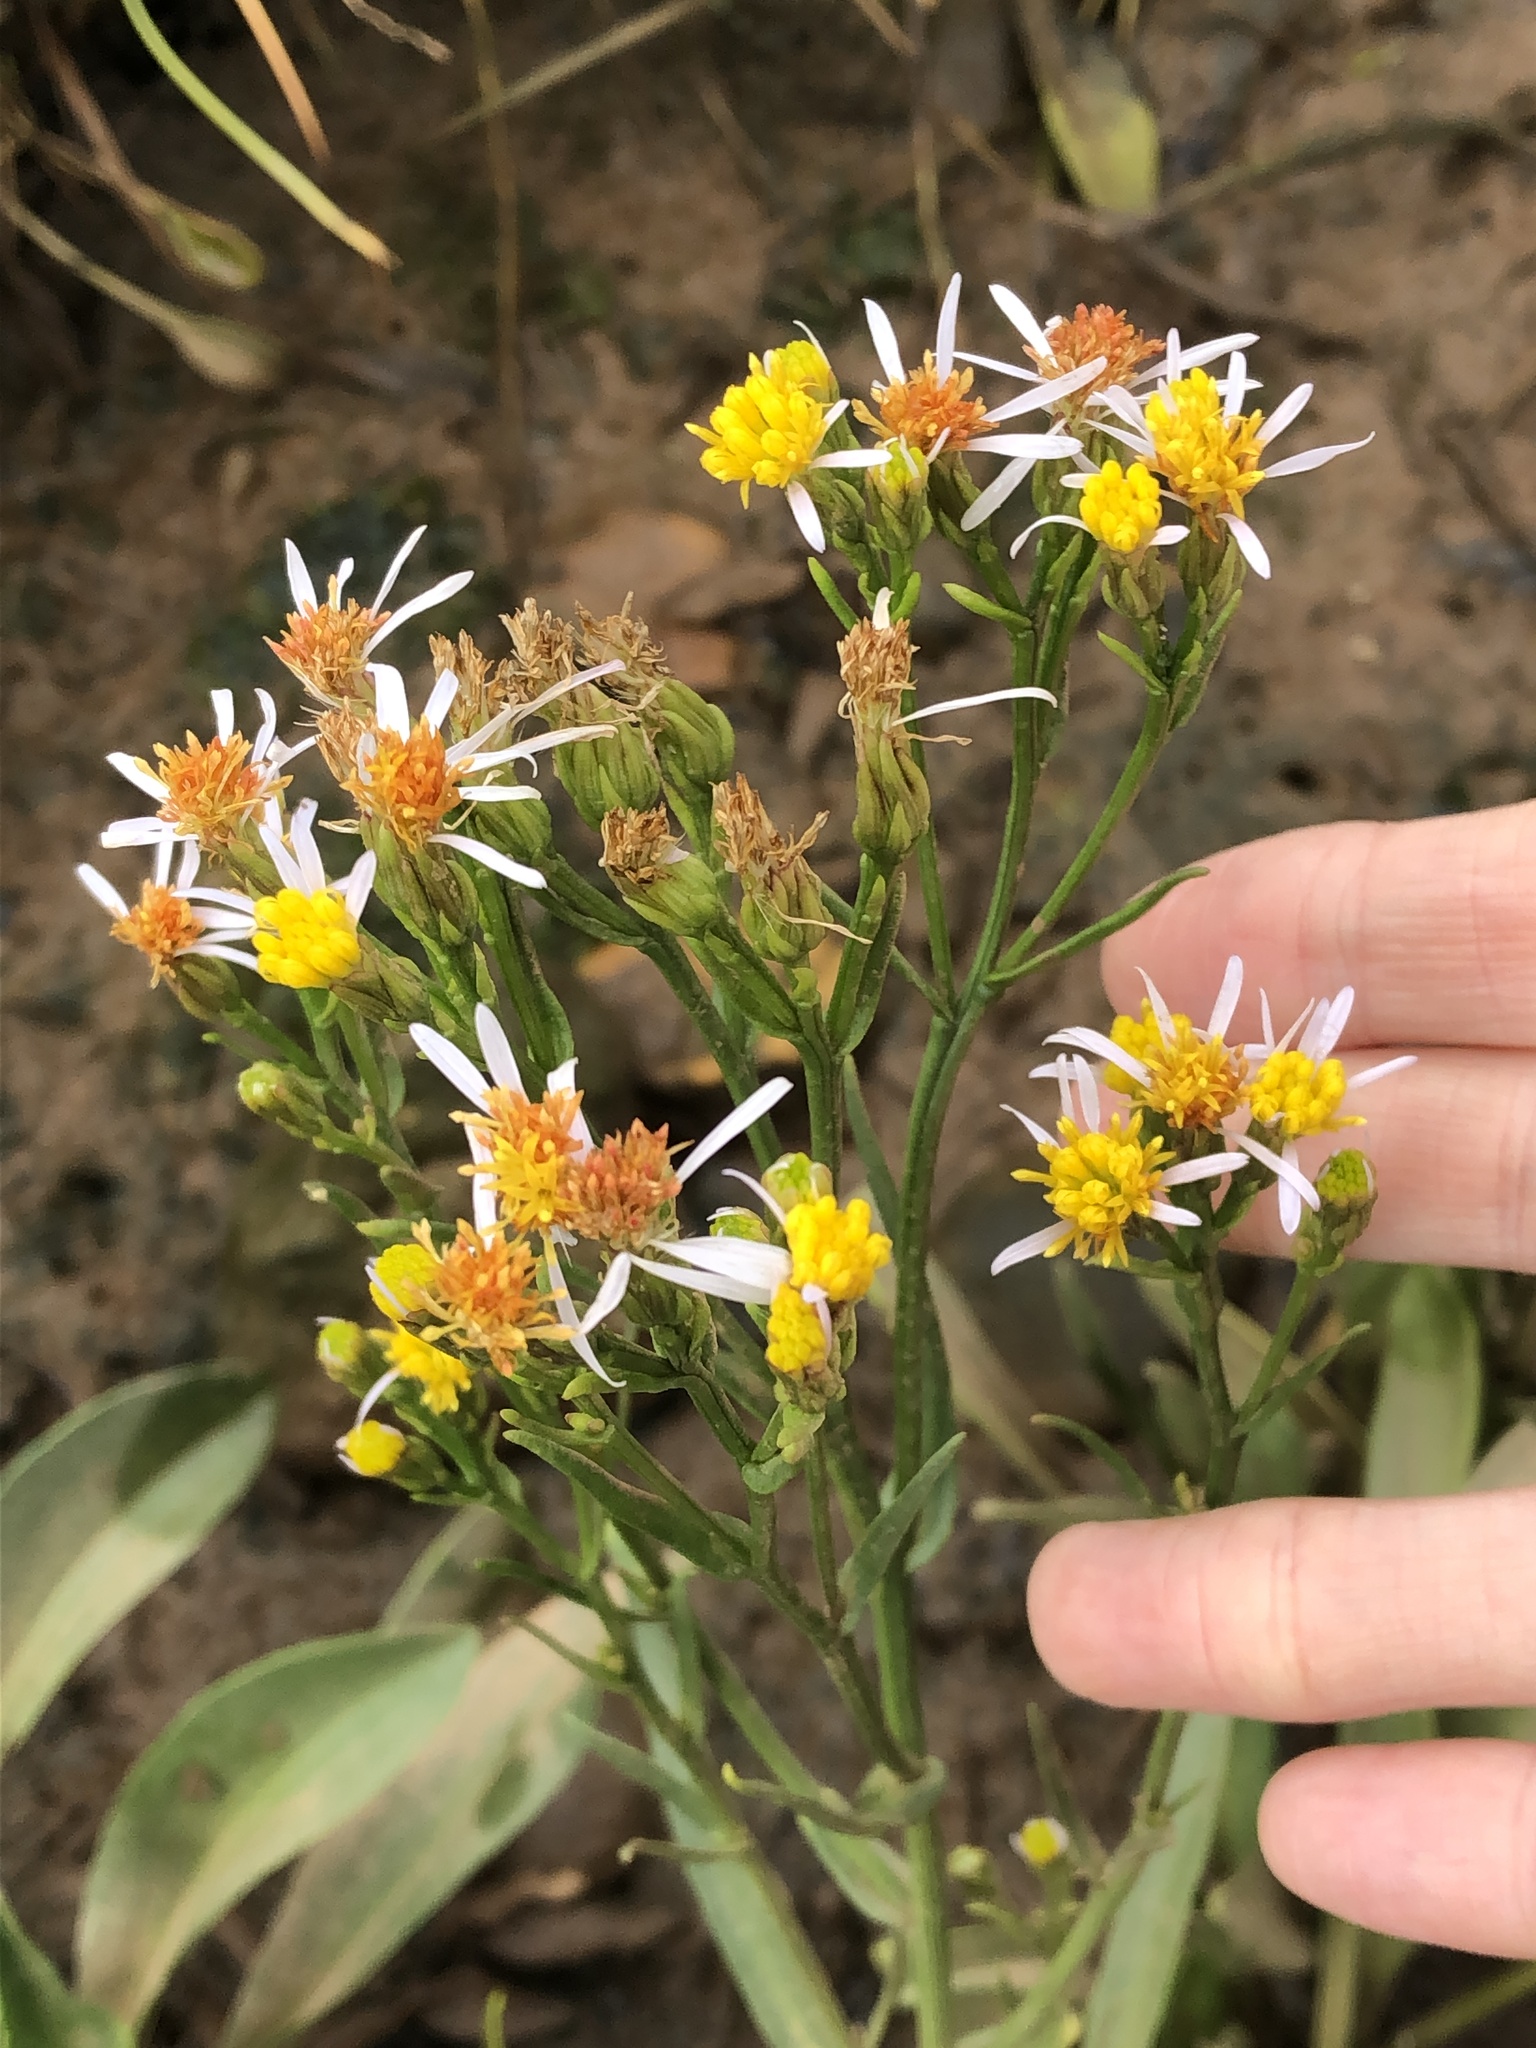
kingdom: Plantae
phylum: Tracheophyta
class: Magnoliopsida
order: Asterales
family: Asteraceae
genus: Tripolium
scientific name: Tripolium pannonicum
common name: Sea aster
